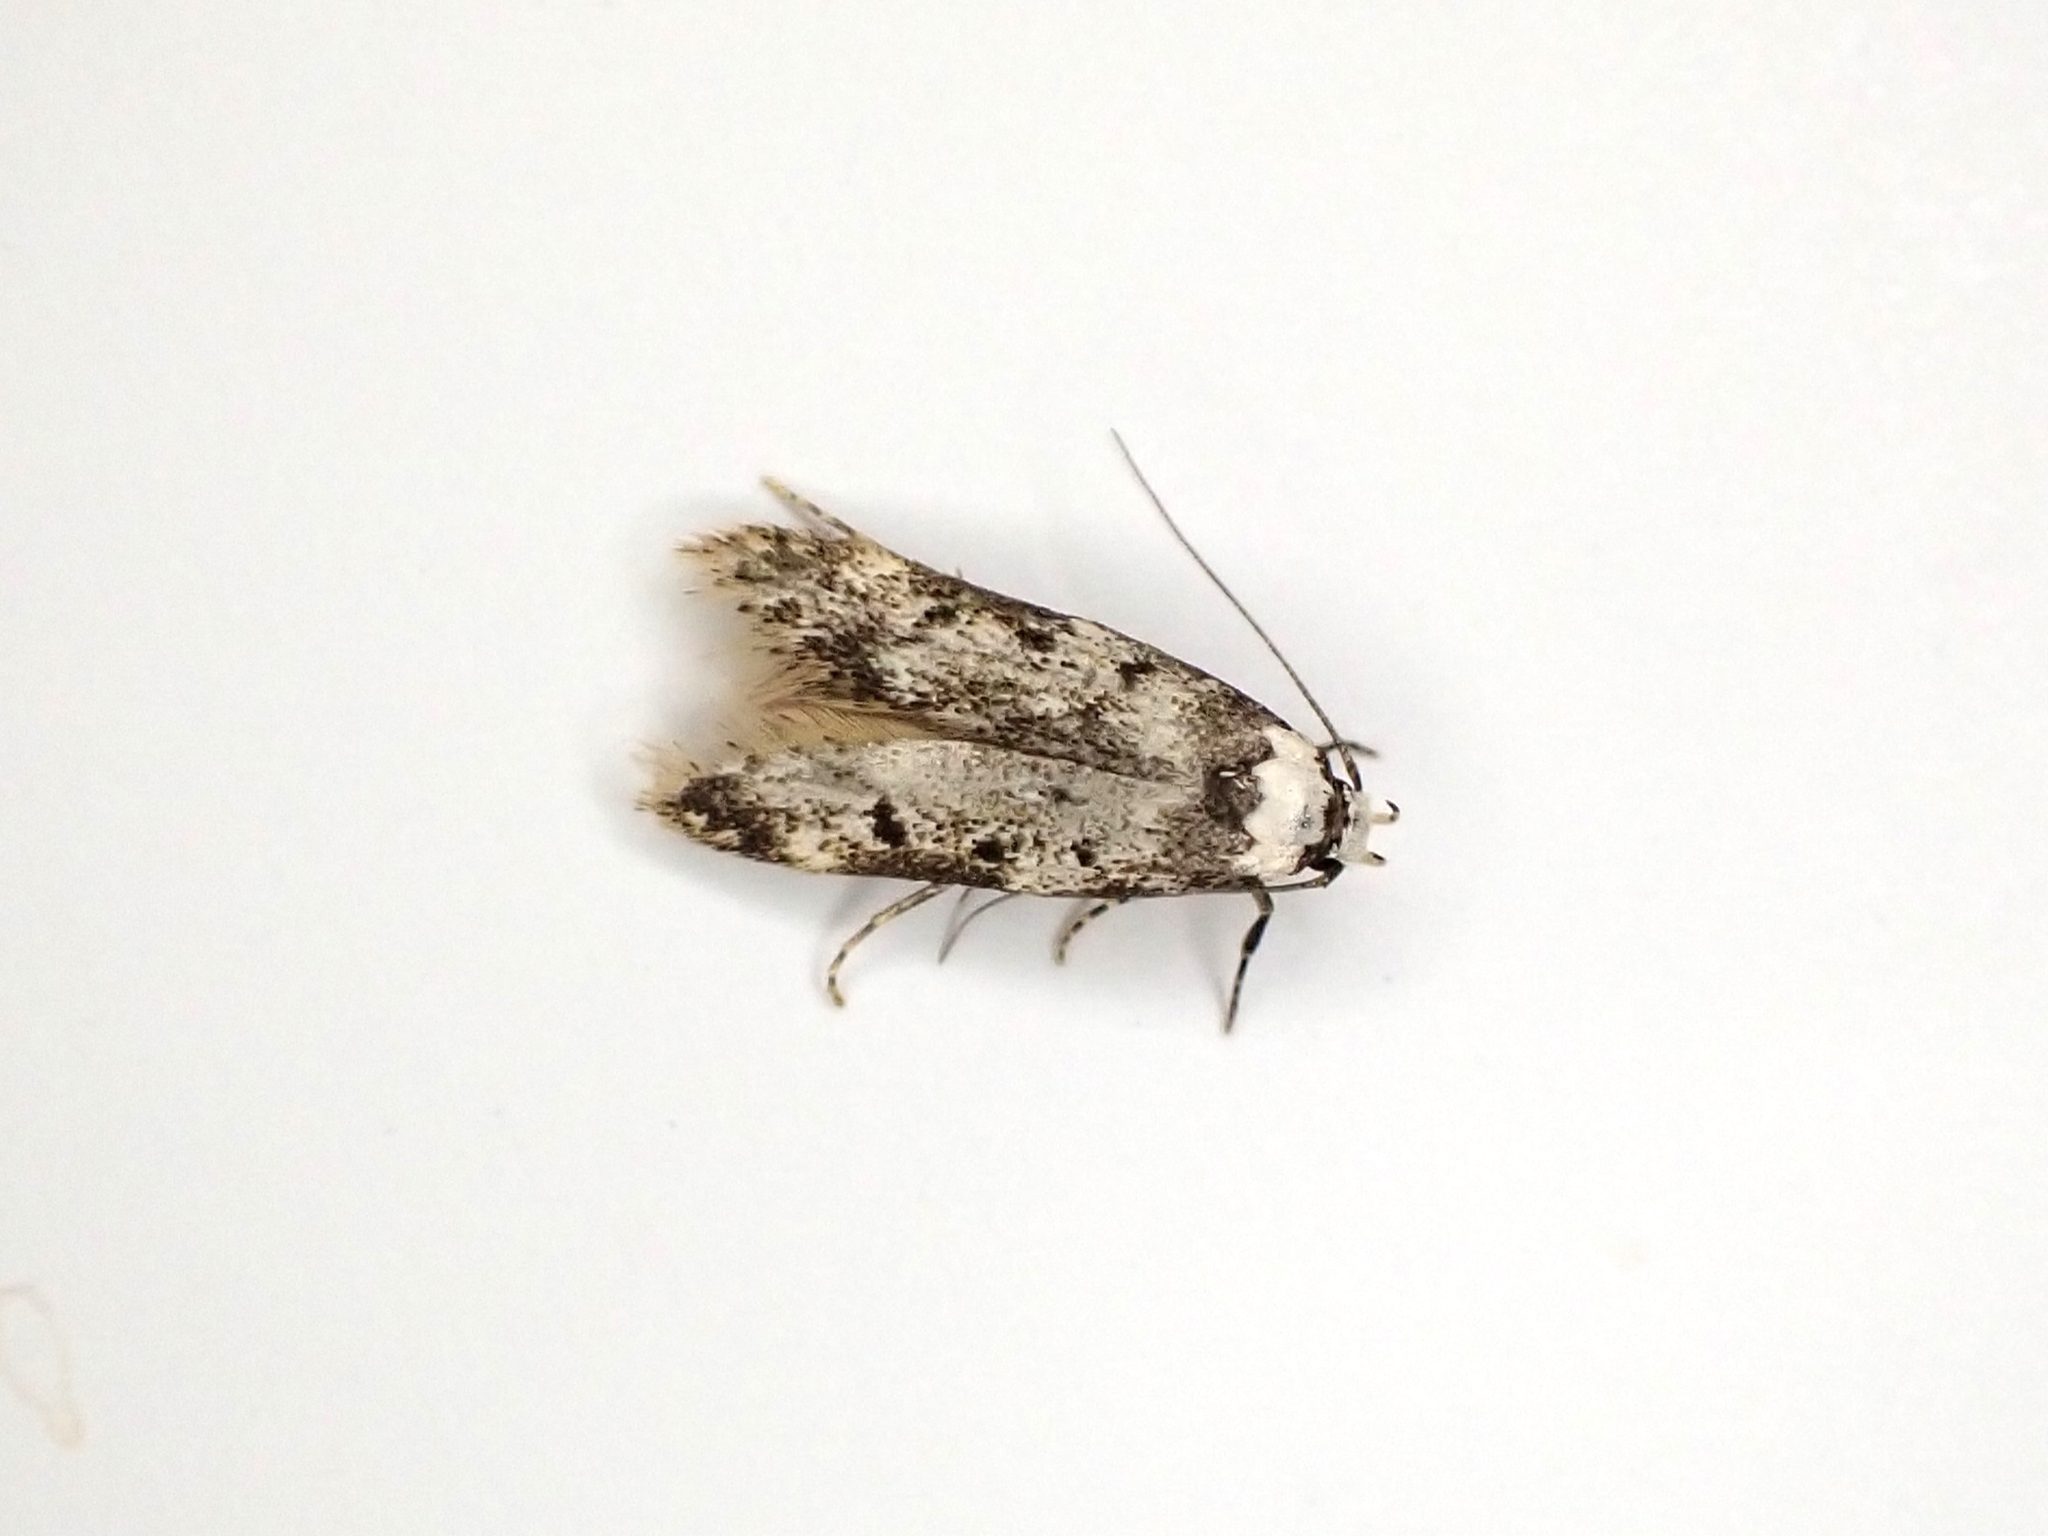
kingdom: Animalia
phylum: Arthropoda
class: Insecta
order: Lepidoptera
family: Oecophoridae
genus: Endrosis
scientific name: Endrosis sarcitrella
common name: White-shouldered house moth
